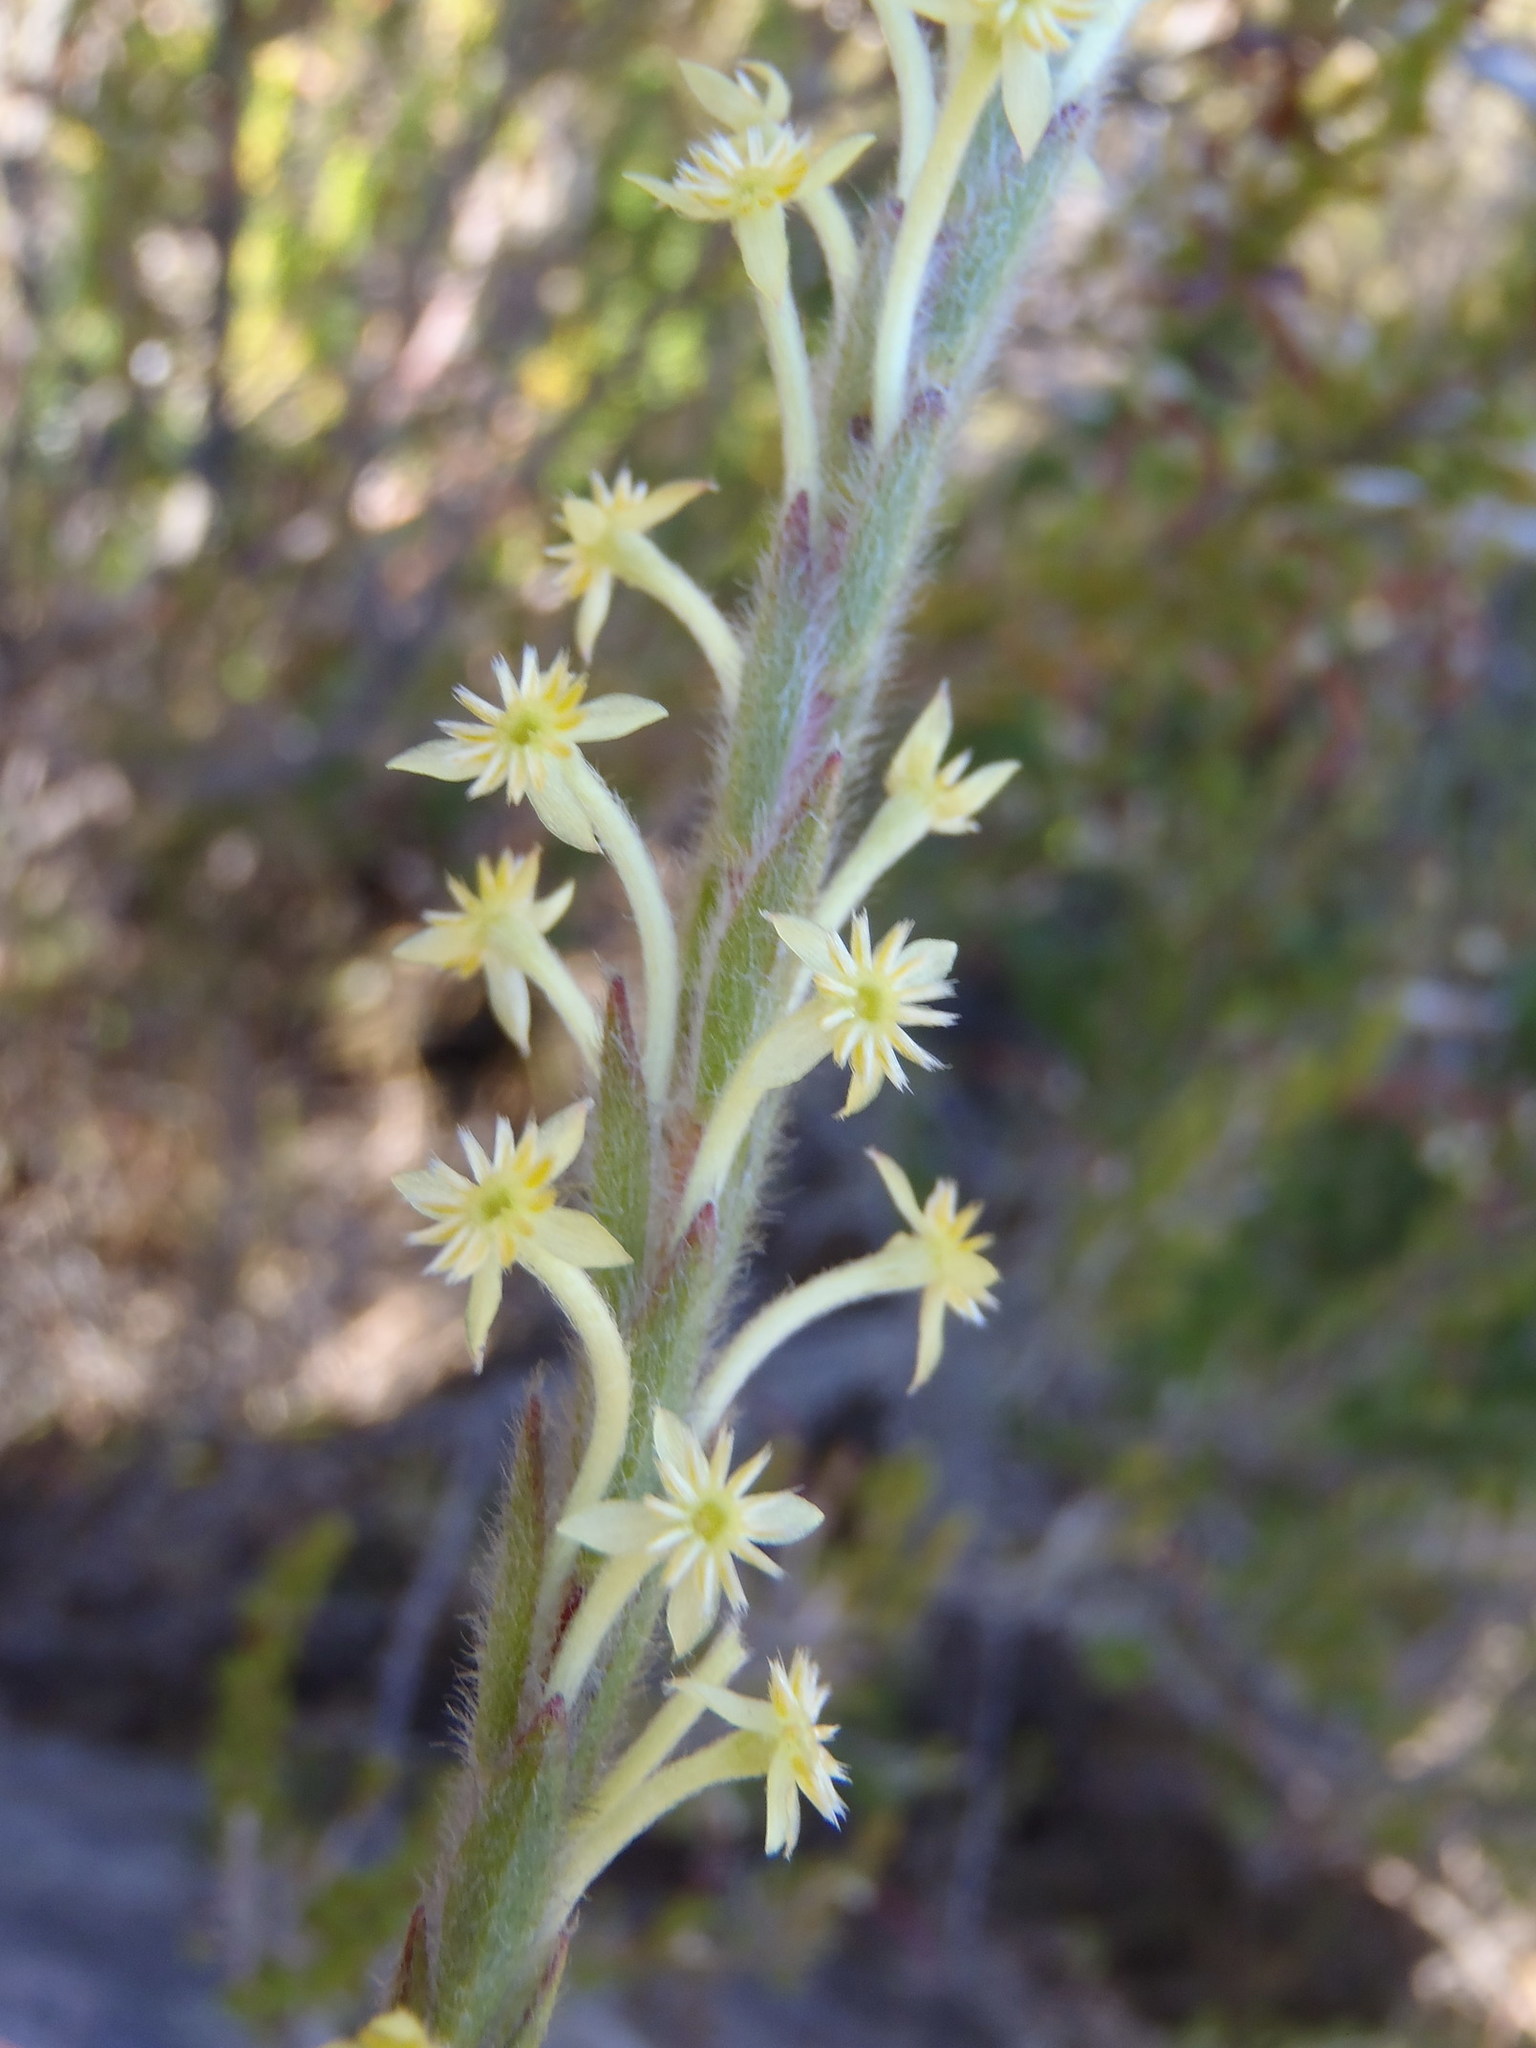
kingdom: Plantae
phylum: Tracheophyta
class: Magnoliopsida
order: Malvales
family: Thymelaeaceae
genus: Struthiola
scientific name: Struthiola tomentosa
